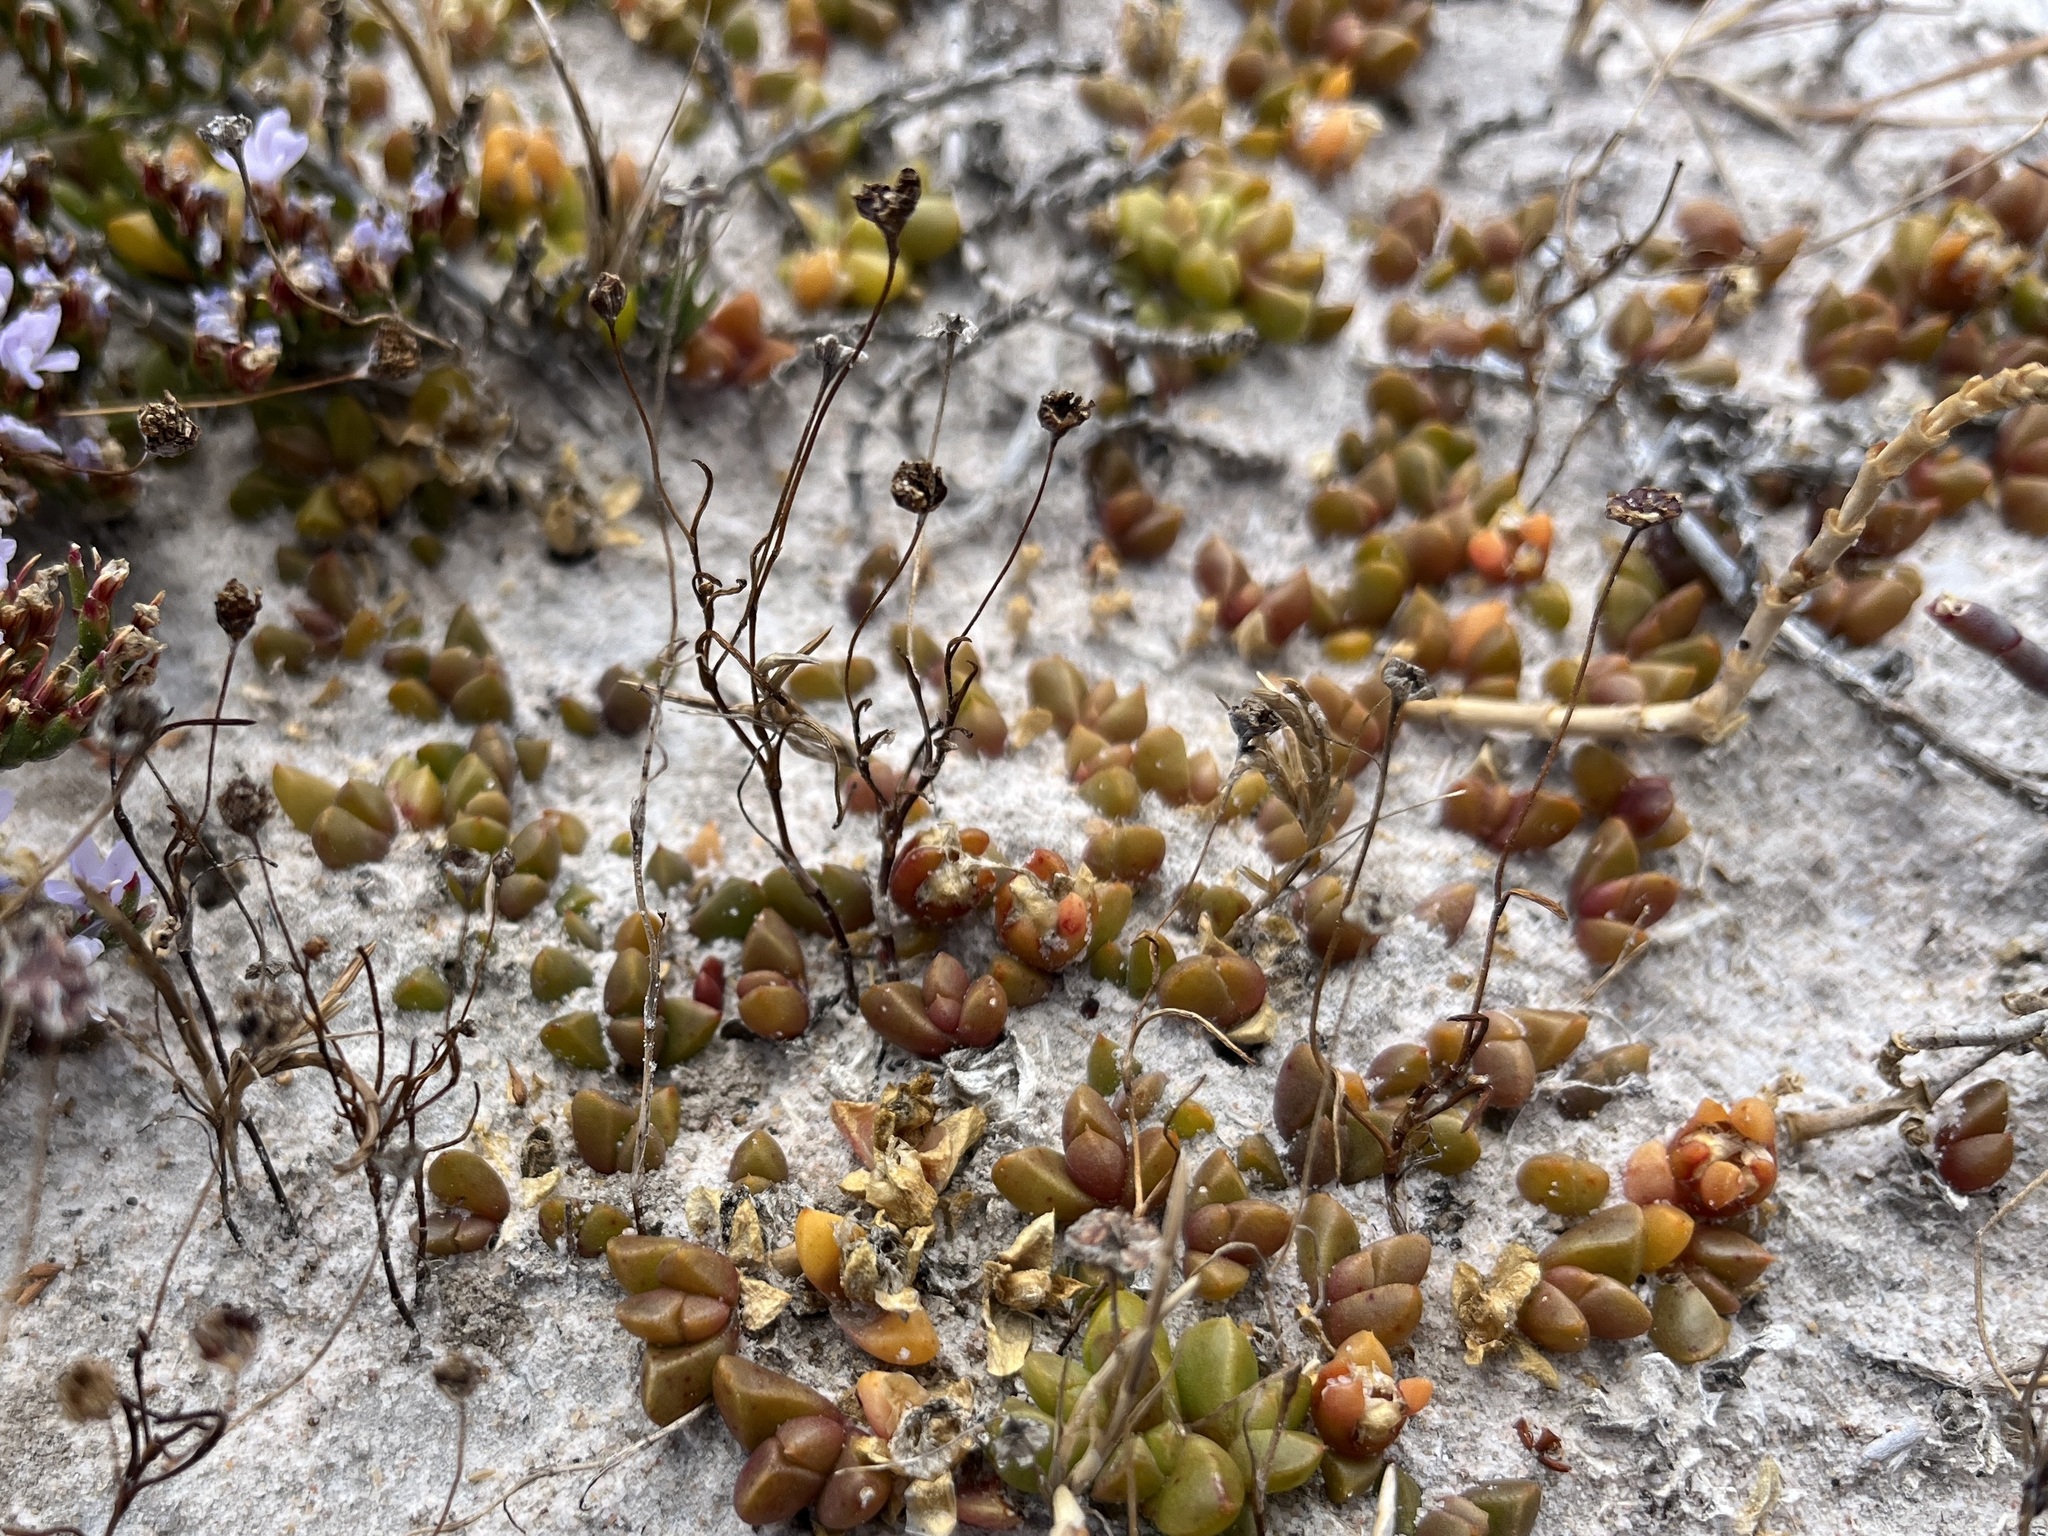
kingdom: Plantae
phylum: Tracheophyta
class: Magnoliopsida
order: Caryophyllales
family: Aizoaceae
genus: Disphyma
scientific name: Disphyma dunsdonii
